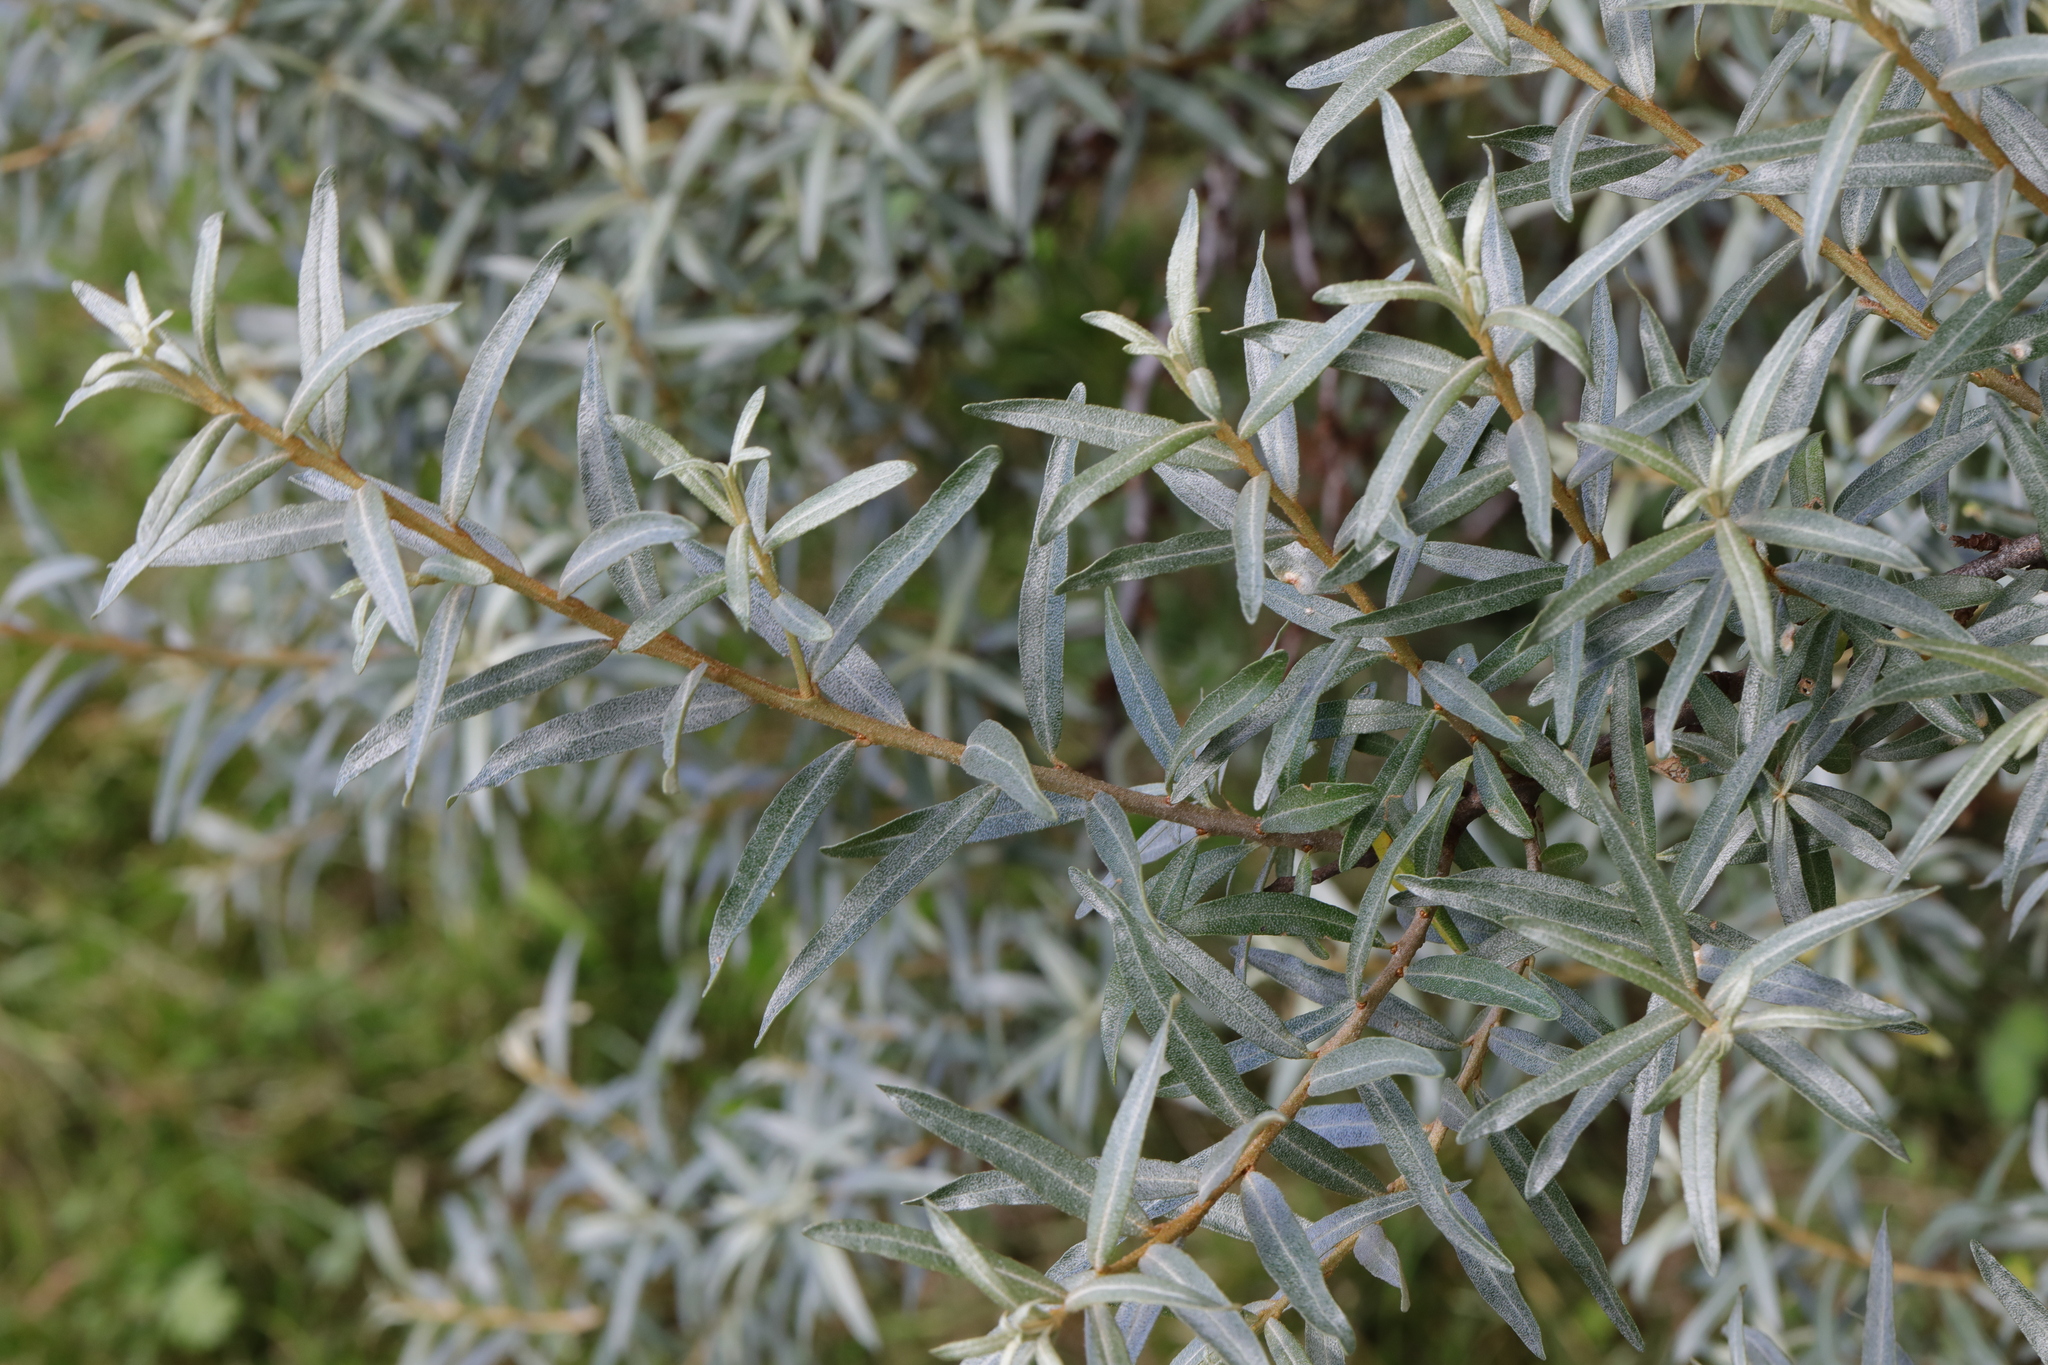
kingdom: Plantae
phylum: Tracheophyta
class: Magnoliopsida
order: Rosales
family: Elaeagnaceae
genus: Hippophae
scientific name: Hippophae rhamnoides
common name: Sea-buckthorn
